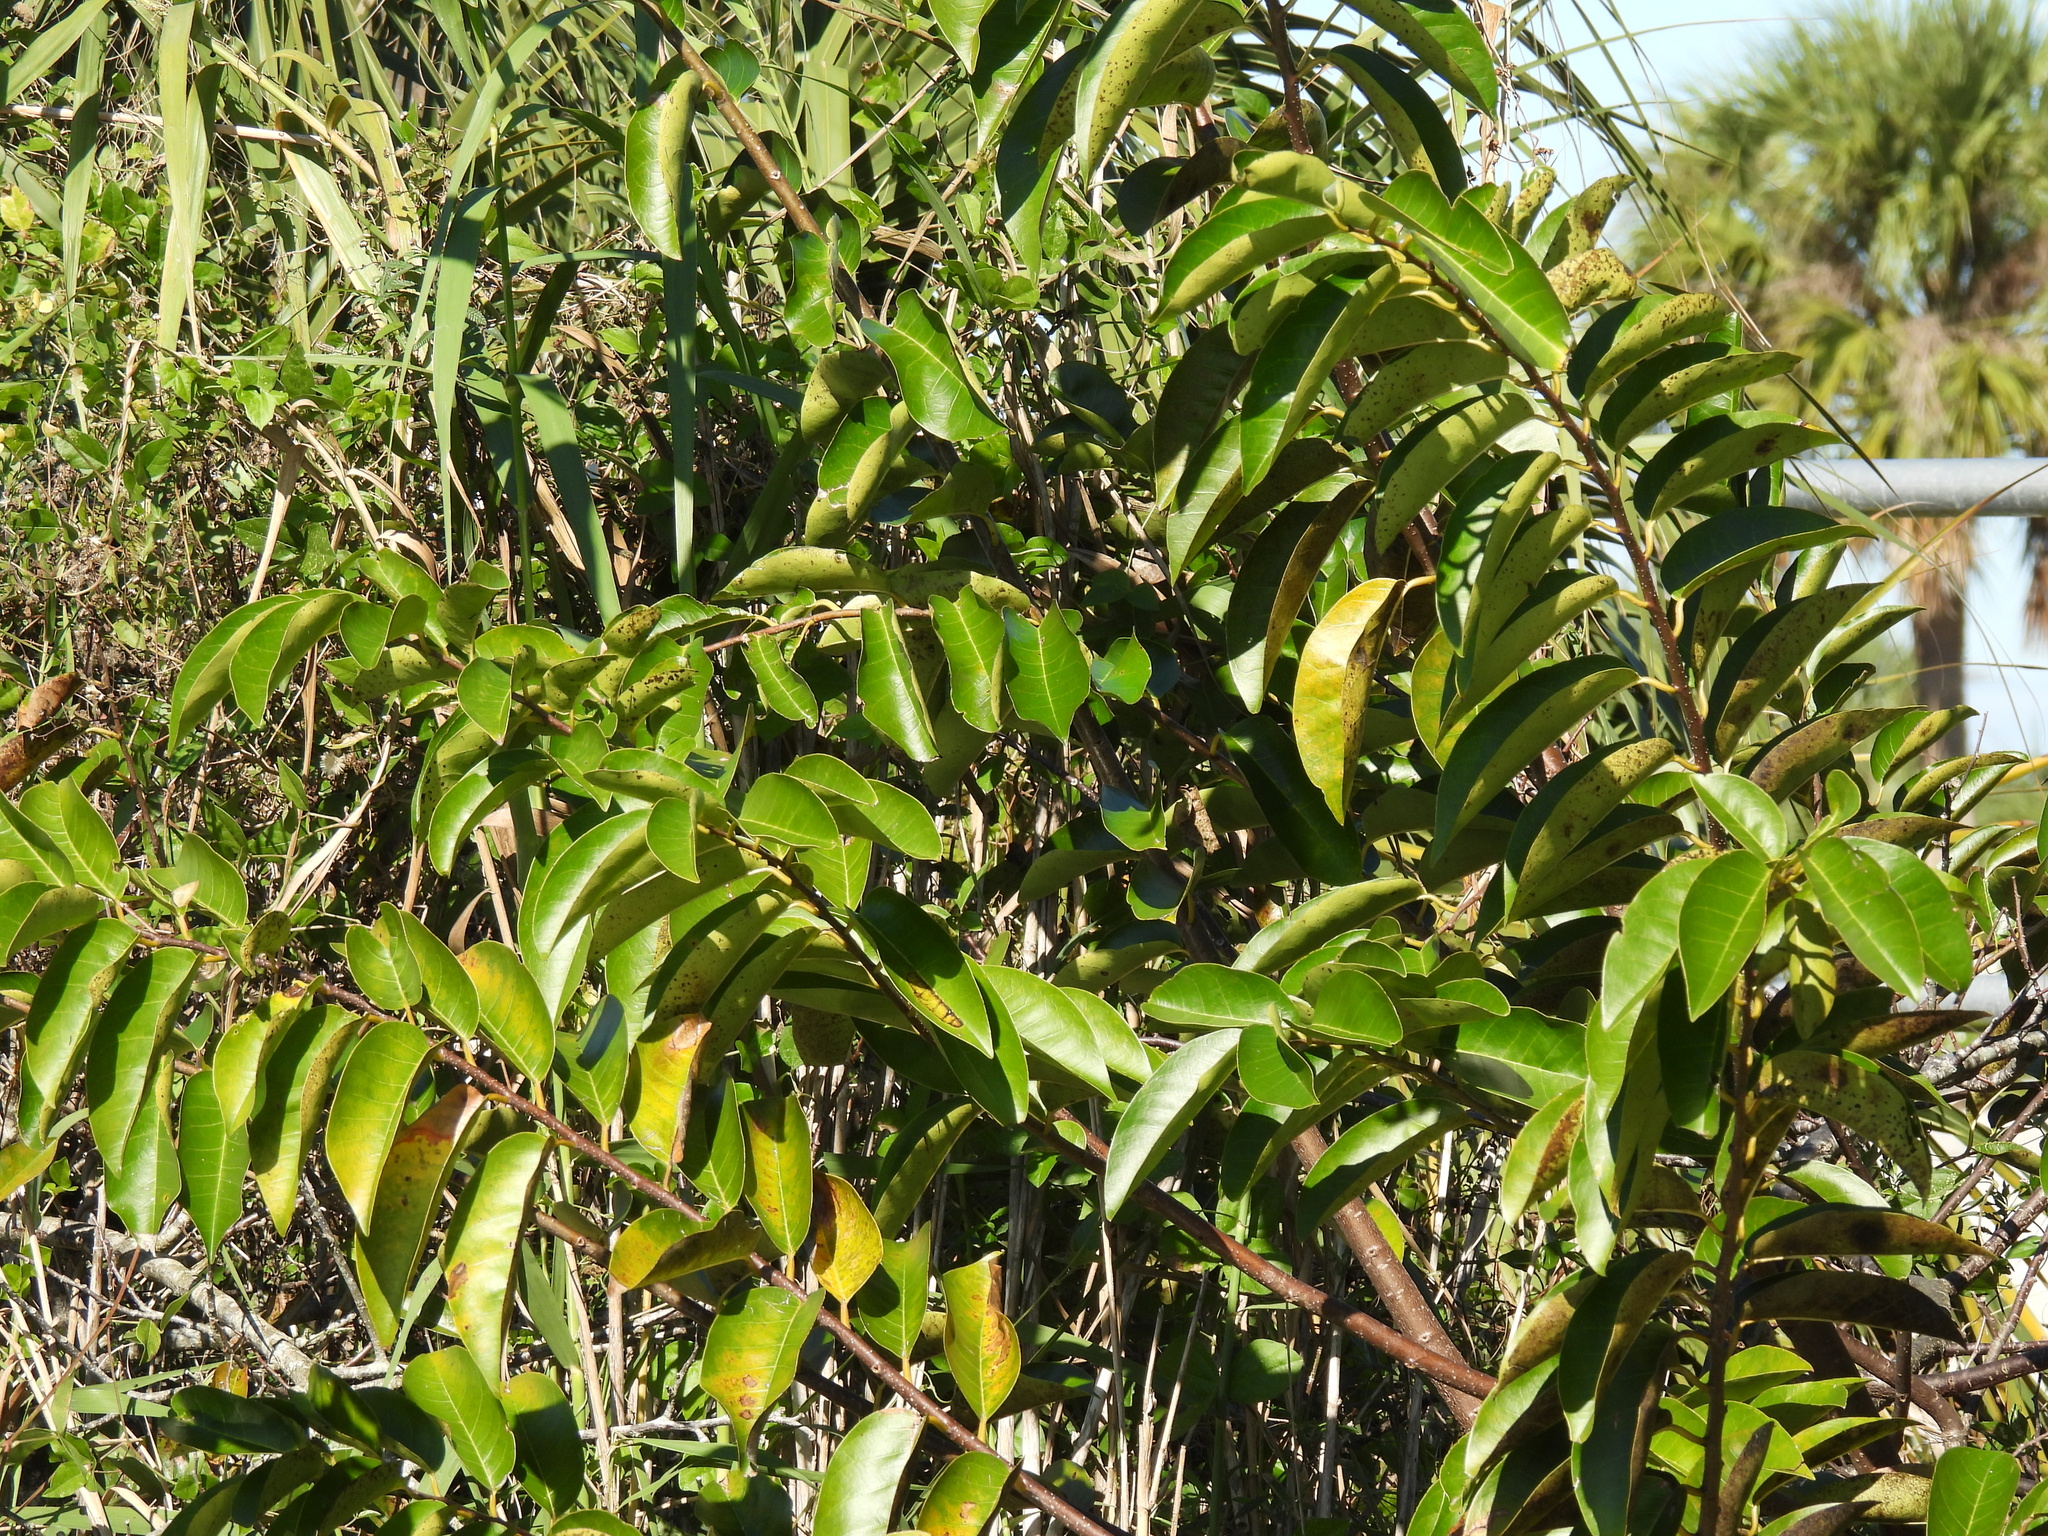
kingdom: Plantae
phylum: Tracheophyta
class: Magnoliopsida
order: Magnoliales
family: Annonaceae
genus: Annona
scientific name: Annona glabra
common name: Monkey apple
